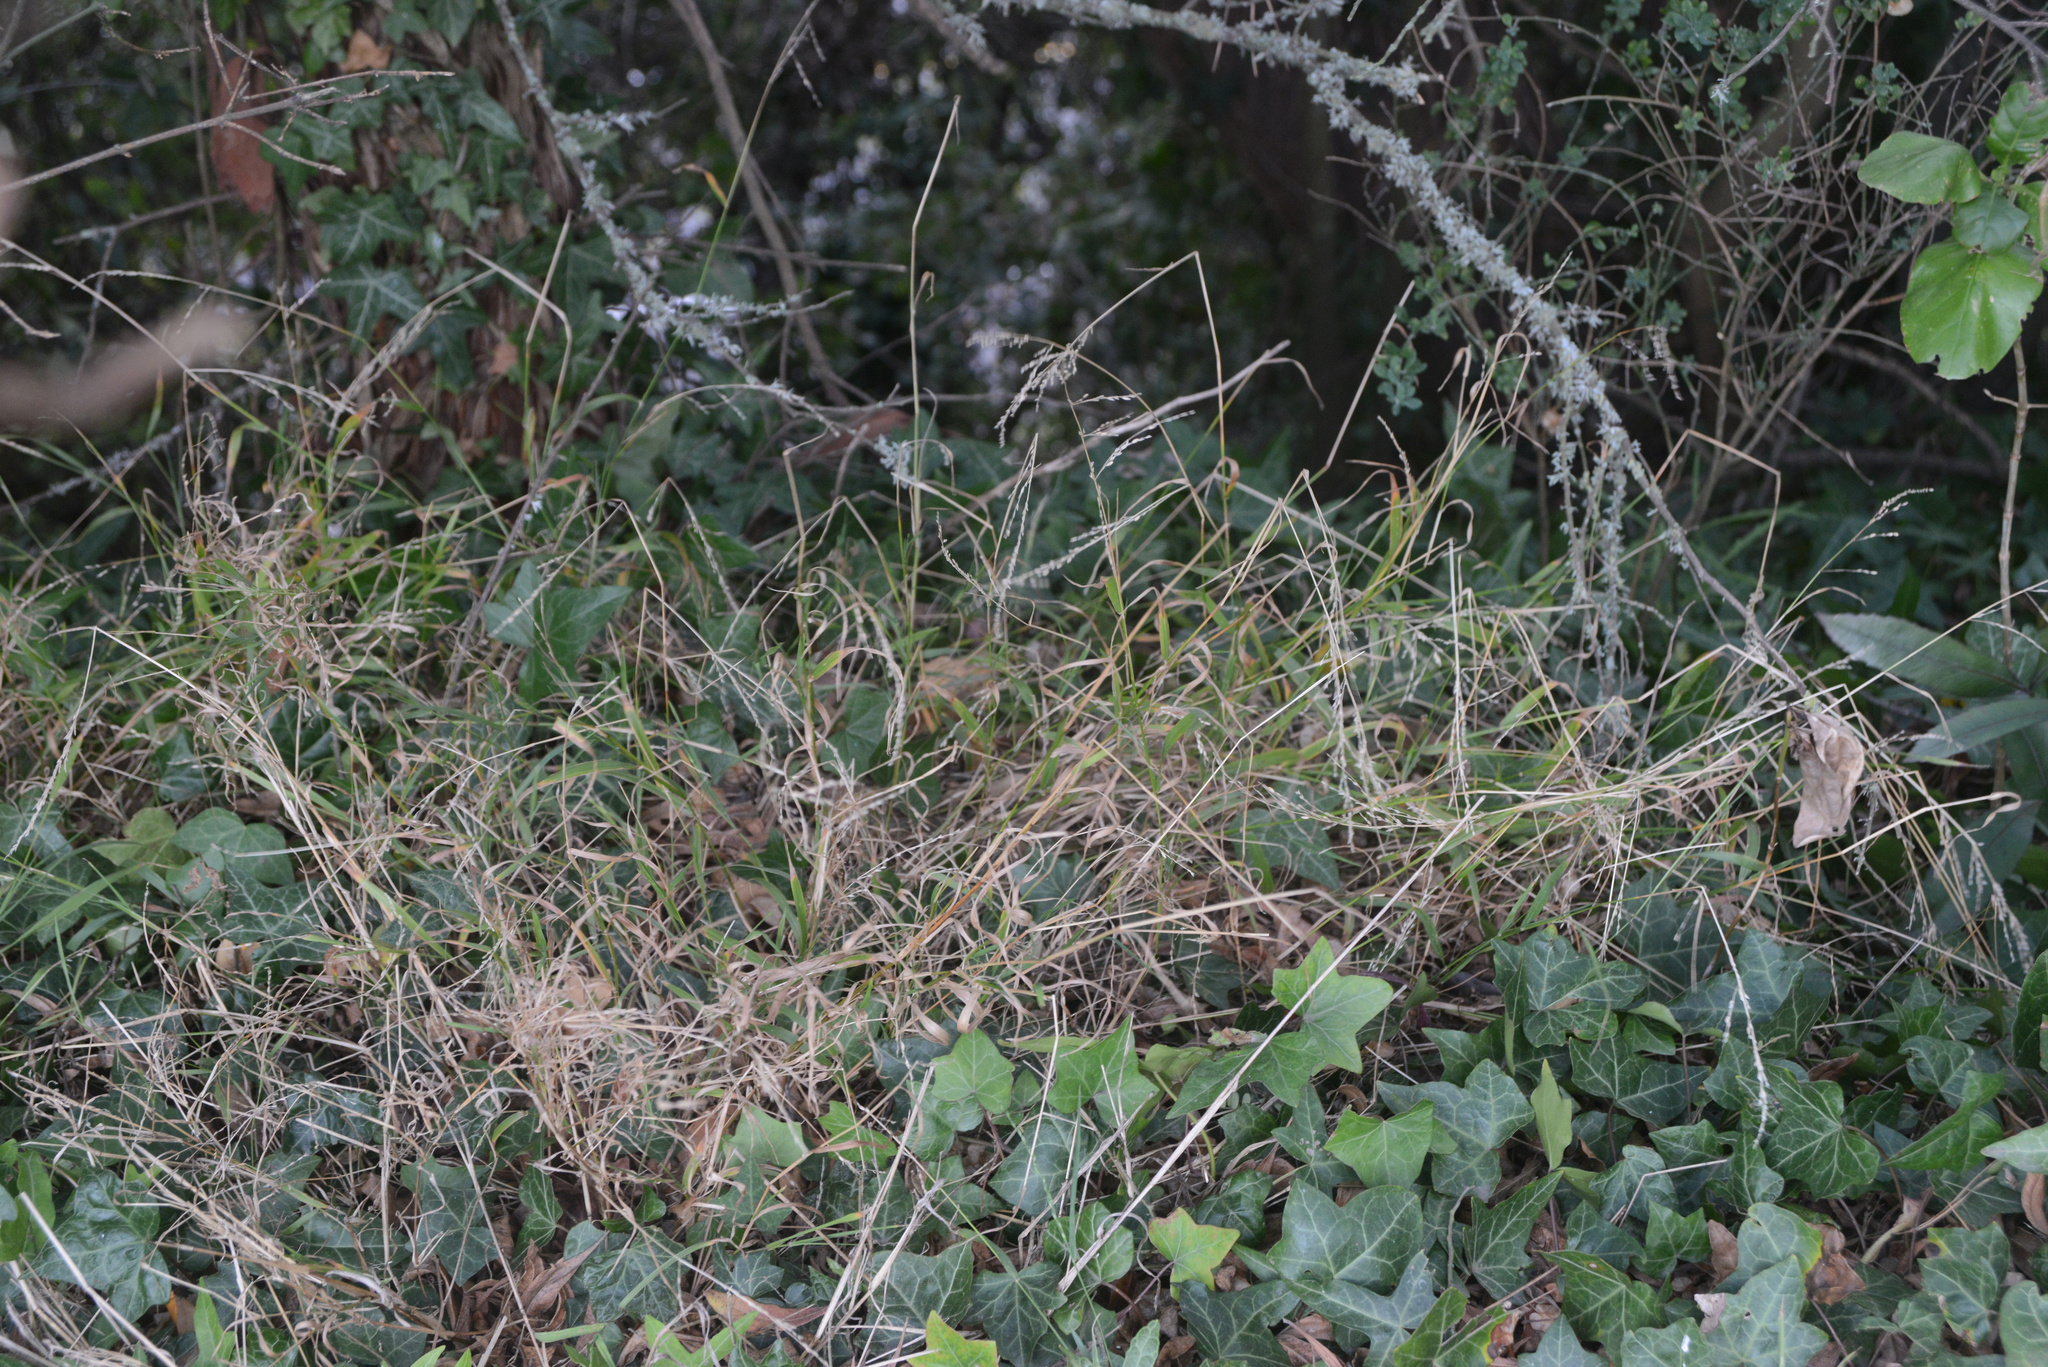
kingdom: Plantae
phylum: Tracheophyta
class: Liliopsida
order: Poales
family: Poaceae
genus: Ehrharta
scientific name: Ehrharta erecta
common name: Panic veldtgrass
